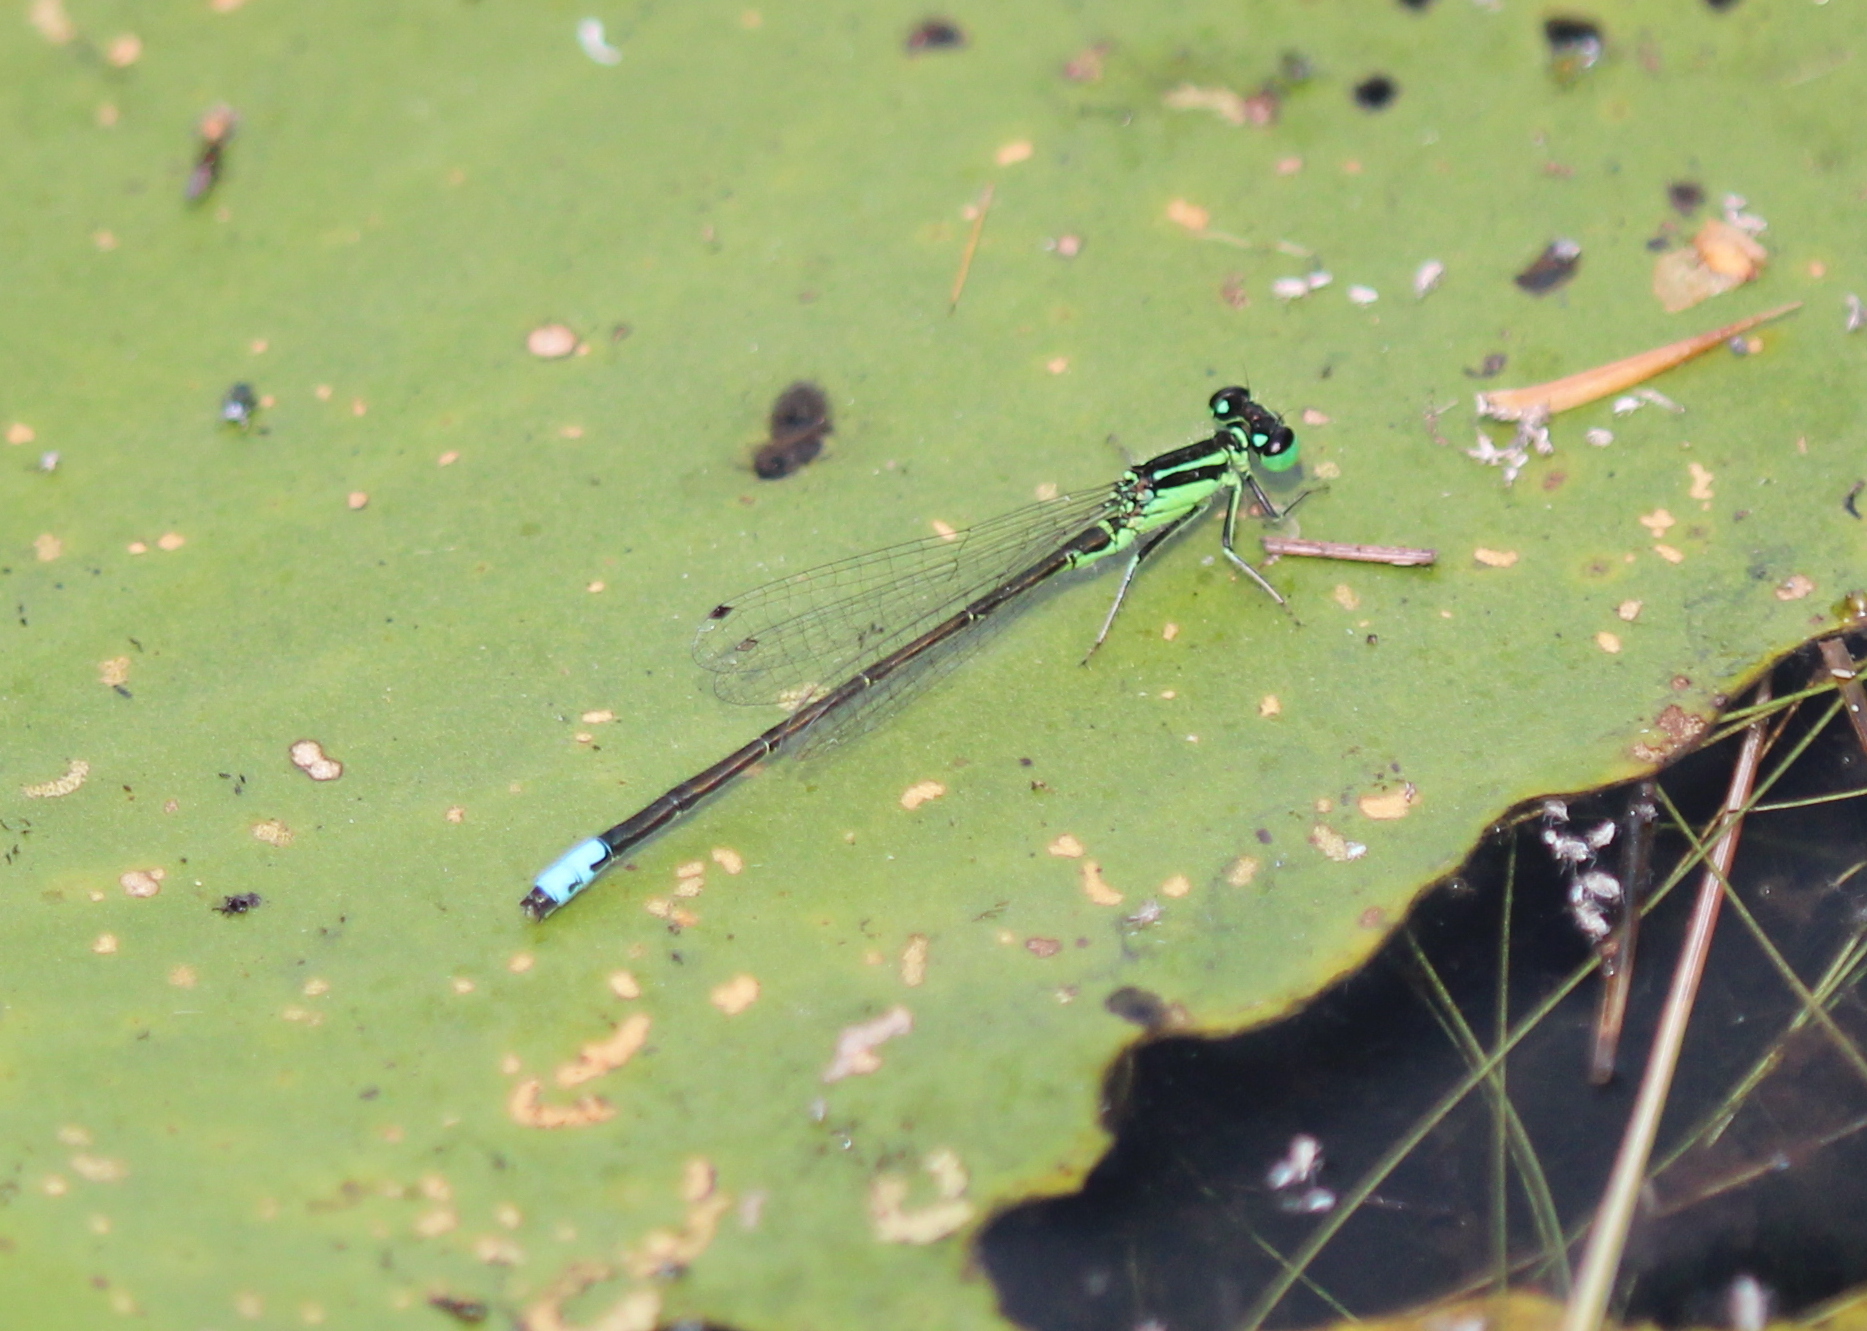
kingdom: Animalia
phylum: Arthropoda
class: Insecta
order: Odonata
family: Coenagrionidae
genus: Ischnura
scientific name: Ischnura verticalis
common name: Eastern forktail
